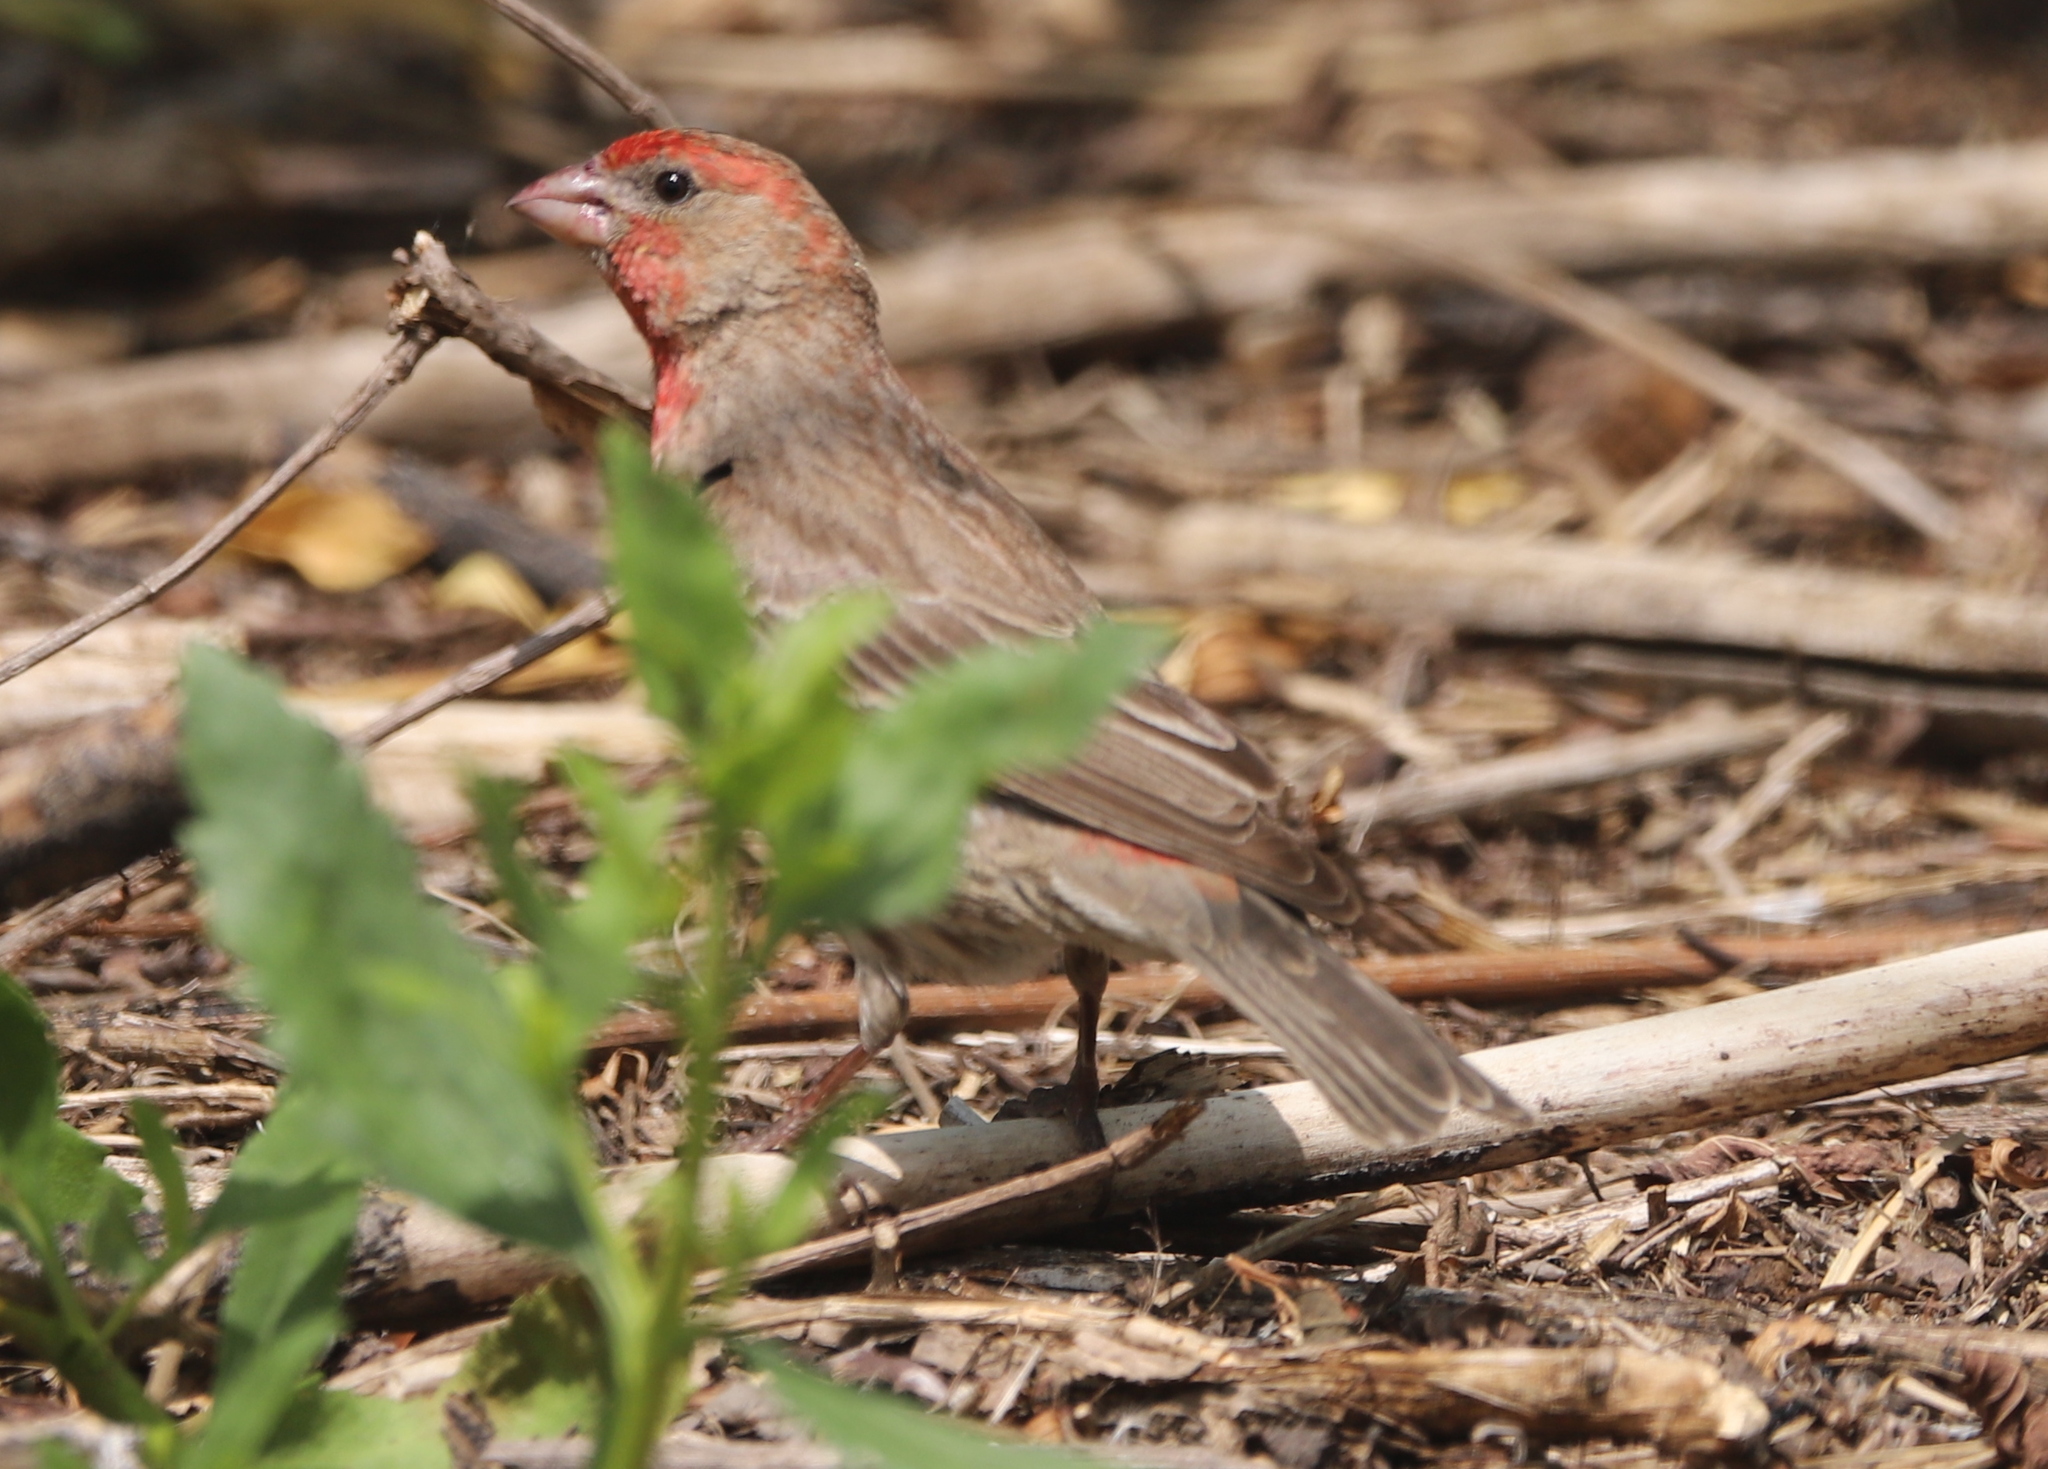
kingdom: Animalia
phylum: Chordata
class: Aves
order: Passeriformes
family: Fringillidae
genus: Haemorhous
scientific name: Haemorhous mexicanus
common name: House finch
